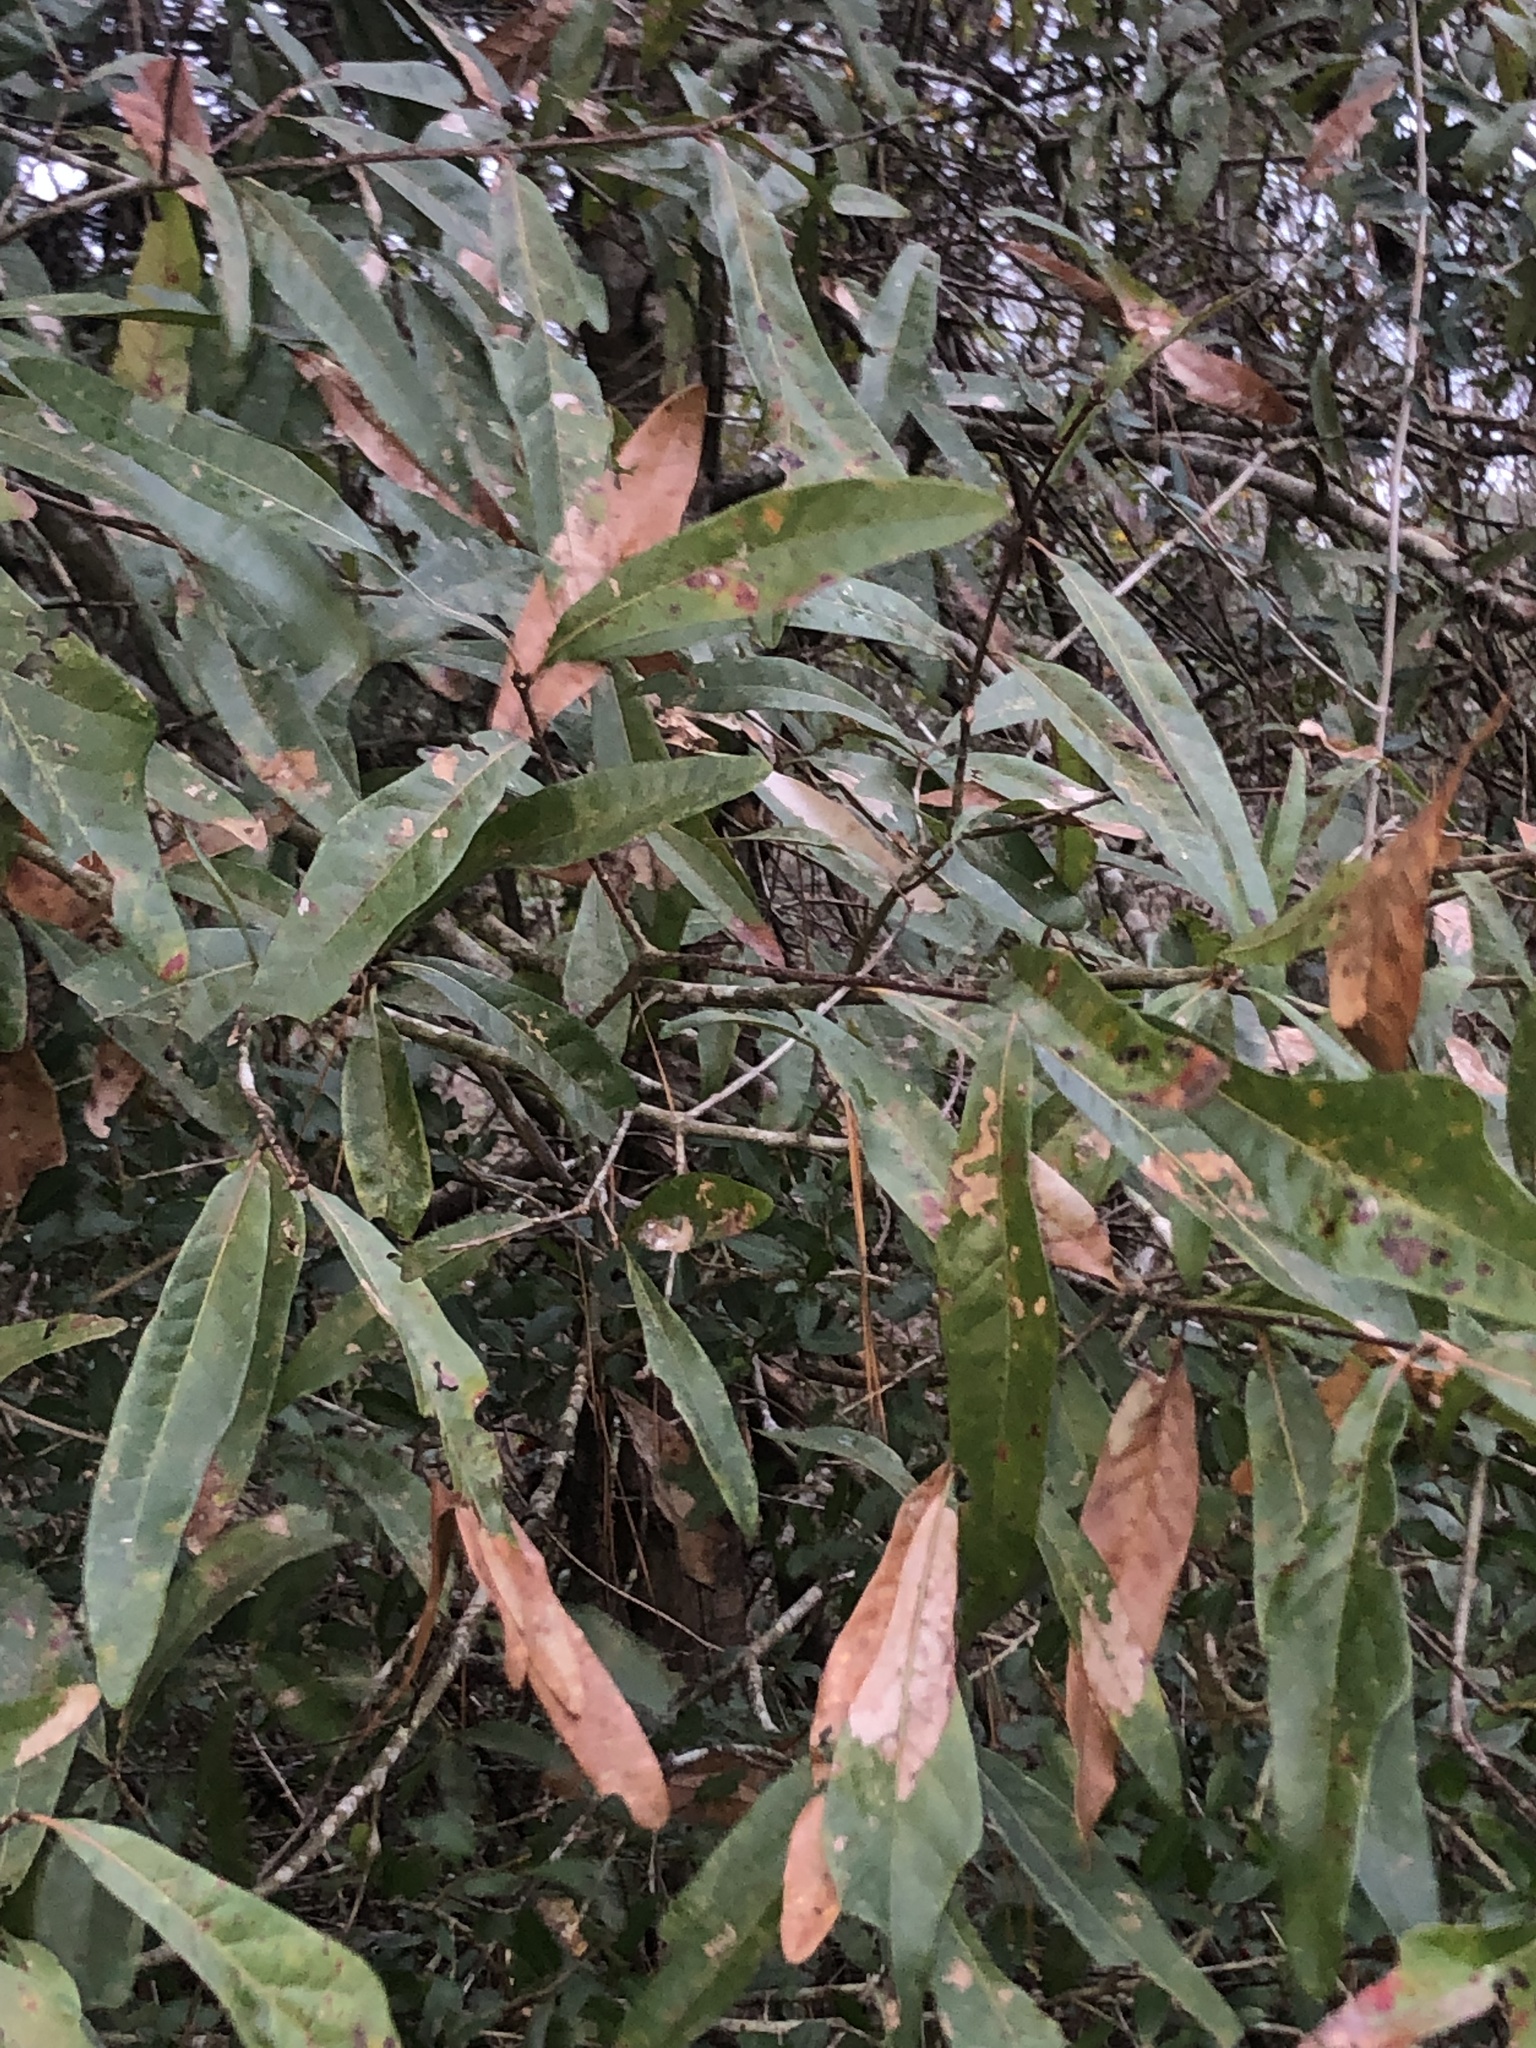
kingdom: Plantae
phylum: Tracheophyta
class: Magnoliopsida
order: Fagales
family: Fagaceae
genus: Quercus
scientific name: Quercus phellos
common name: Willow oak
